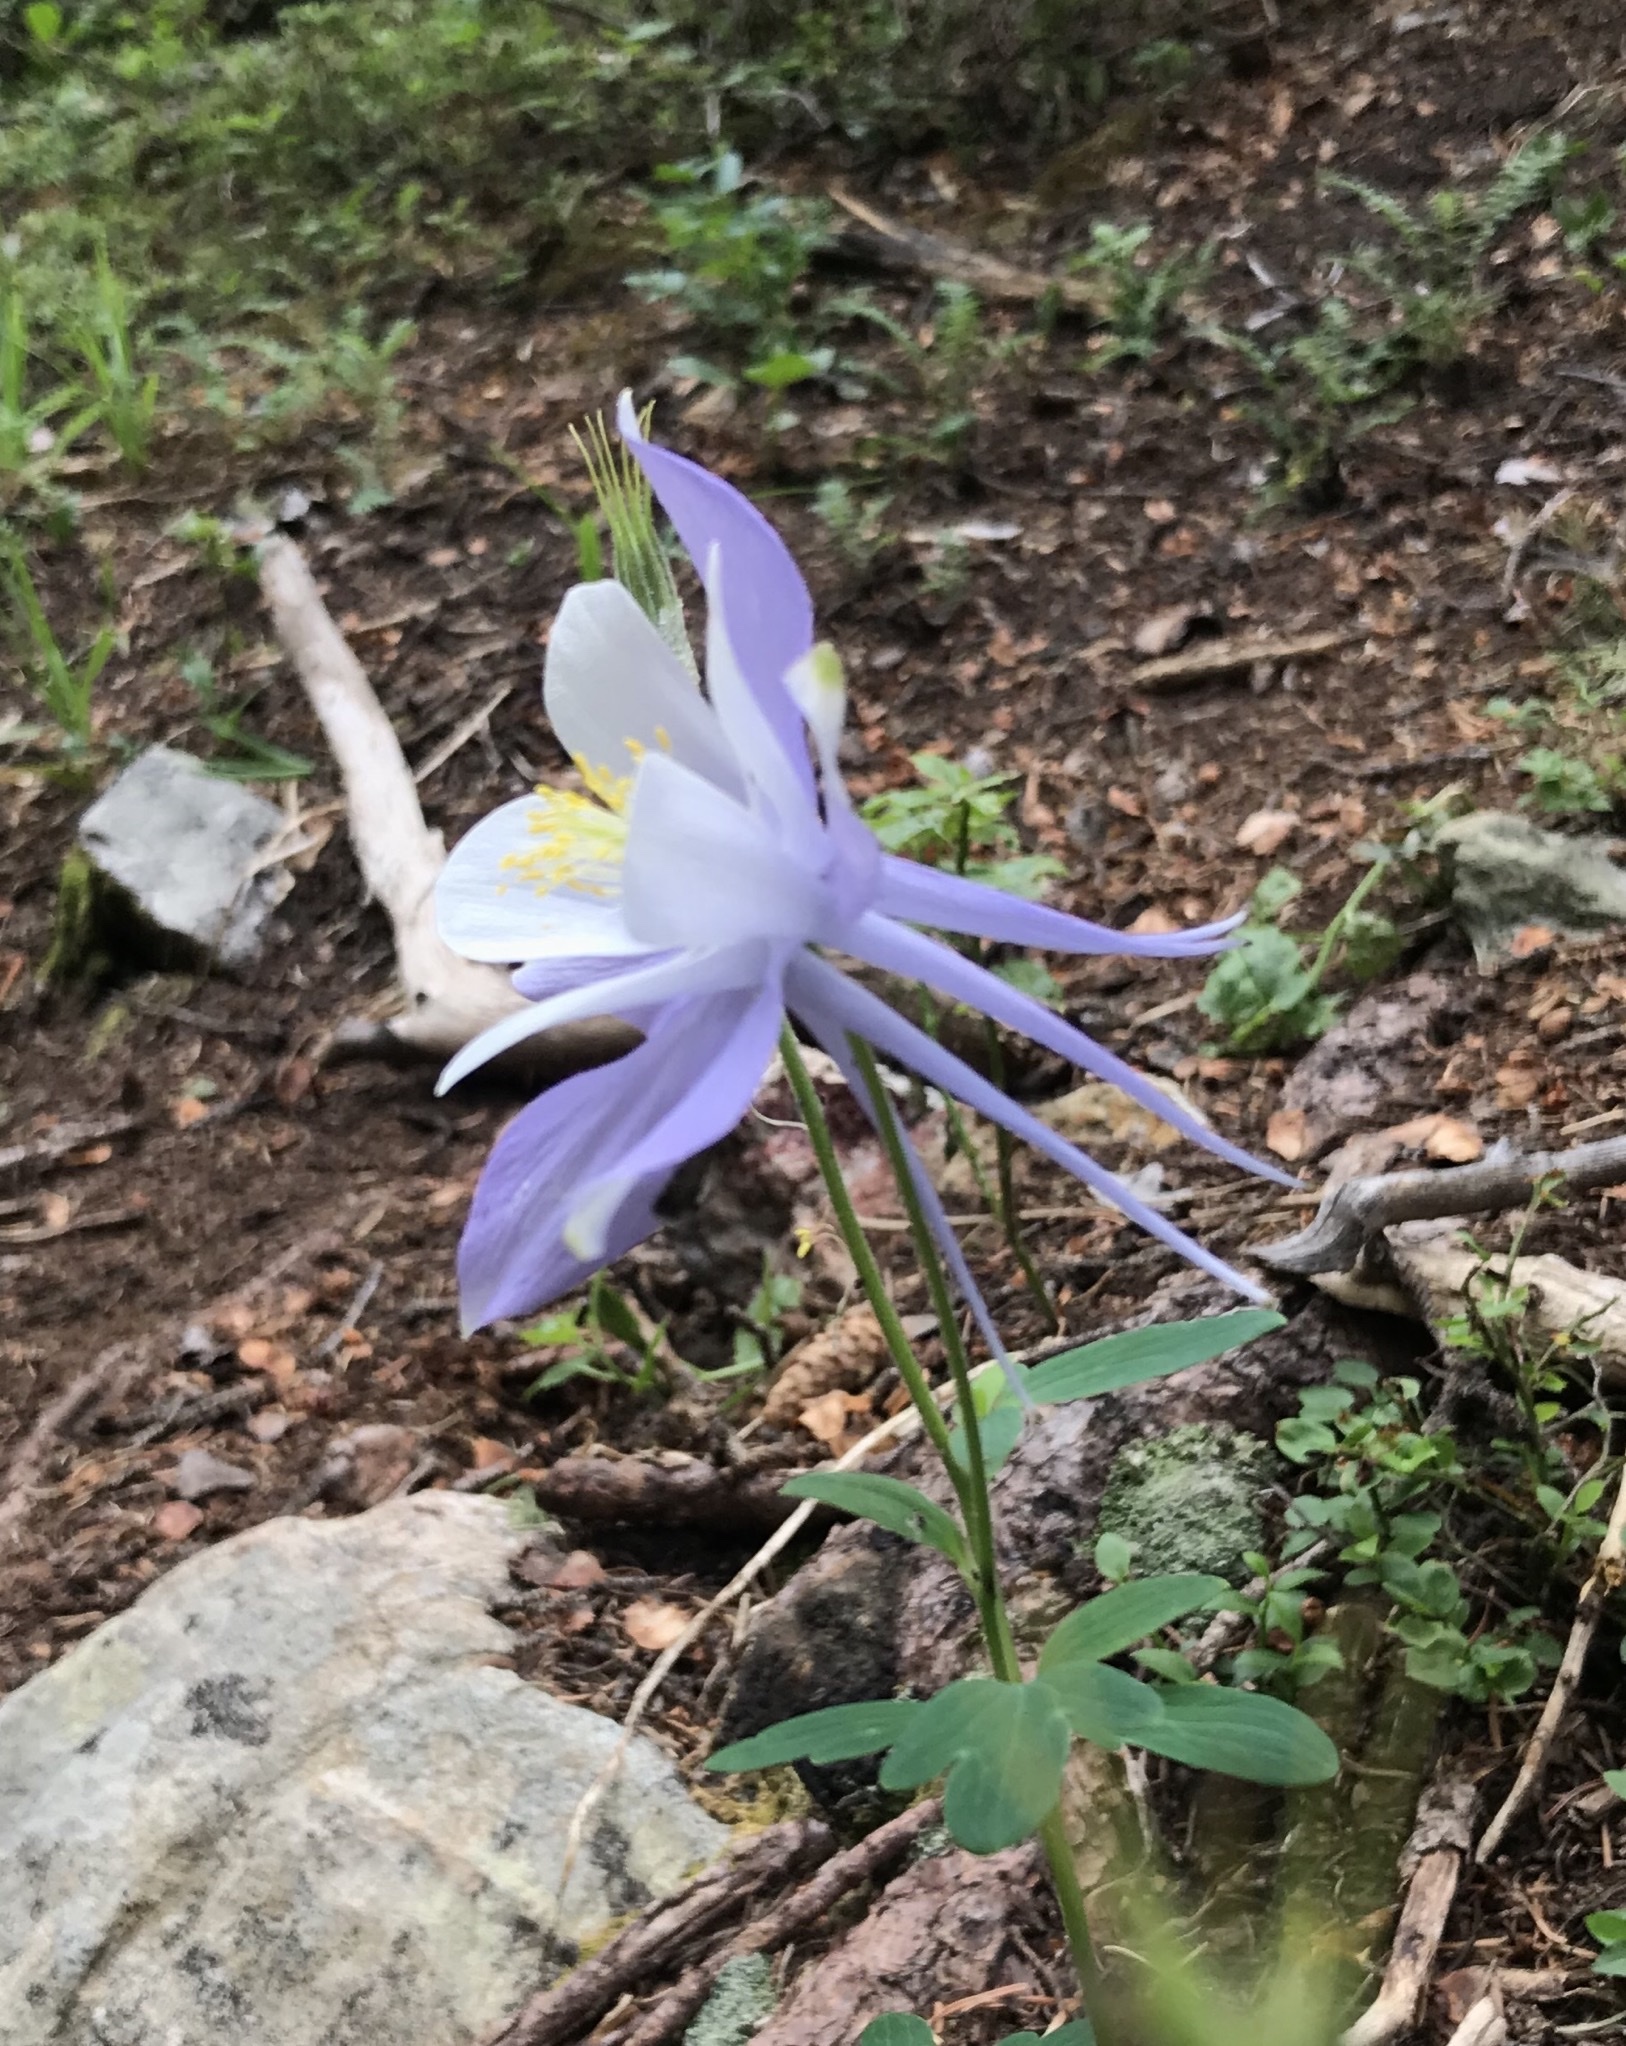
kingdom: Plantae
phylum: Tracheophyta
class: Magnoliopsida
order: Ranunculales
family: Ranunculaceae
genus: Aquilegia
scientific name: Aquilegia coerulea
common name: Rocky mountain columbine
